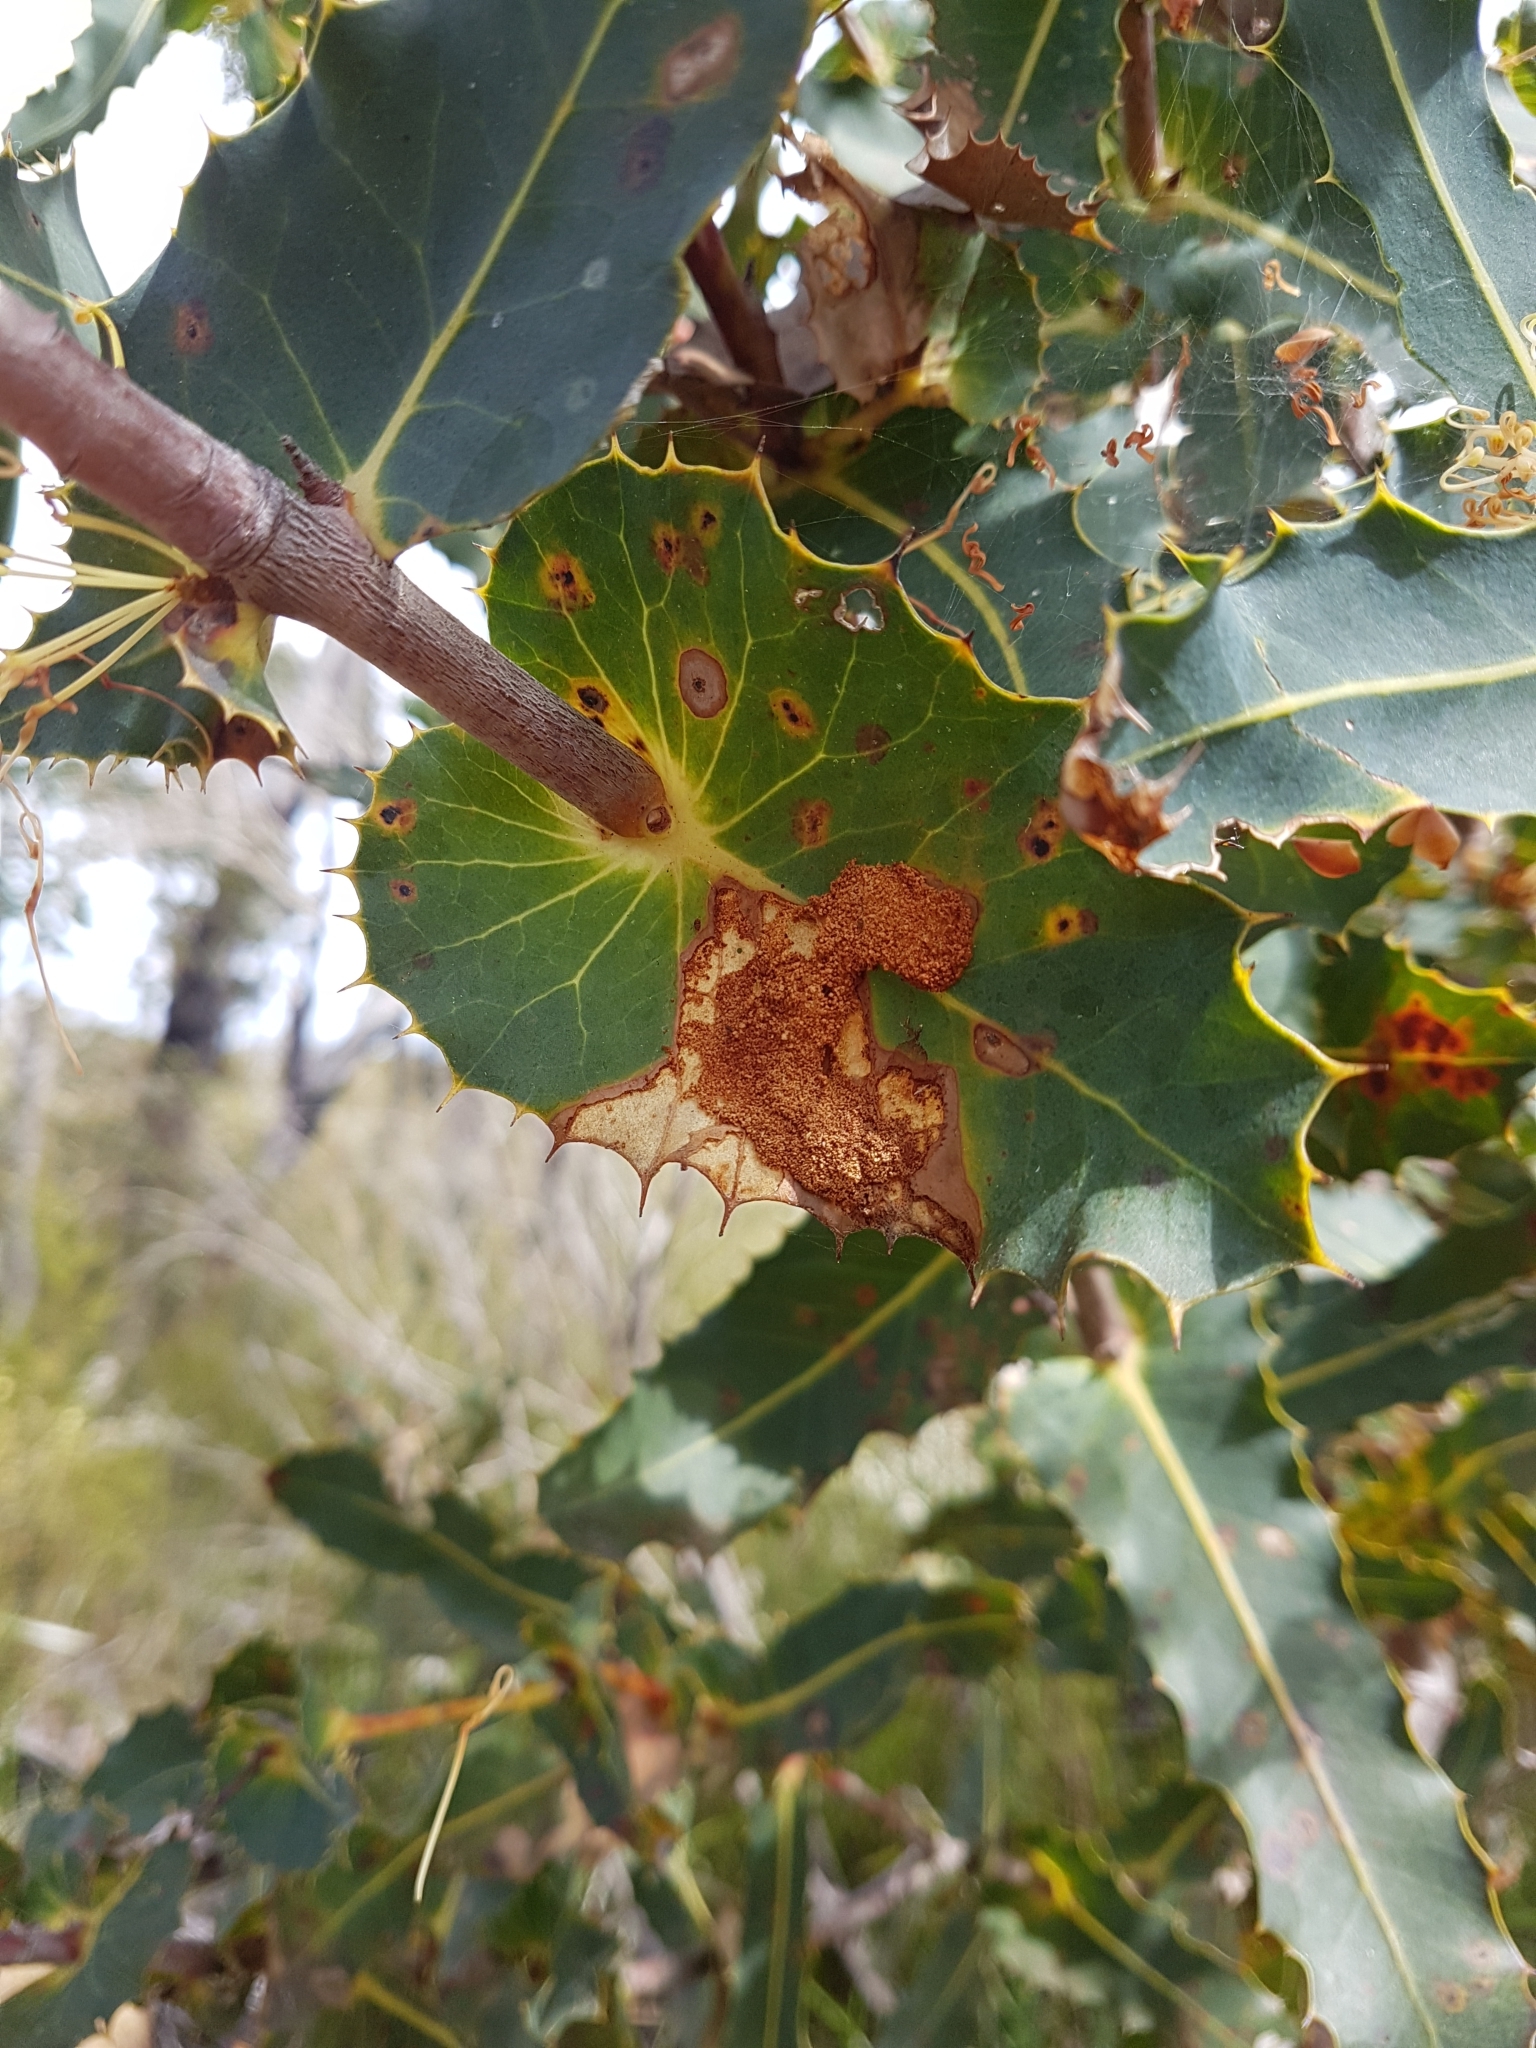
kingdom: Plantae
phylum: Tracheophyta
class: Magnoliopsida
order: Proteales
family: Proteaceae
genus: Hakea
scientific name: Hakea amplexicaulis
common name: Prickly hakea
